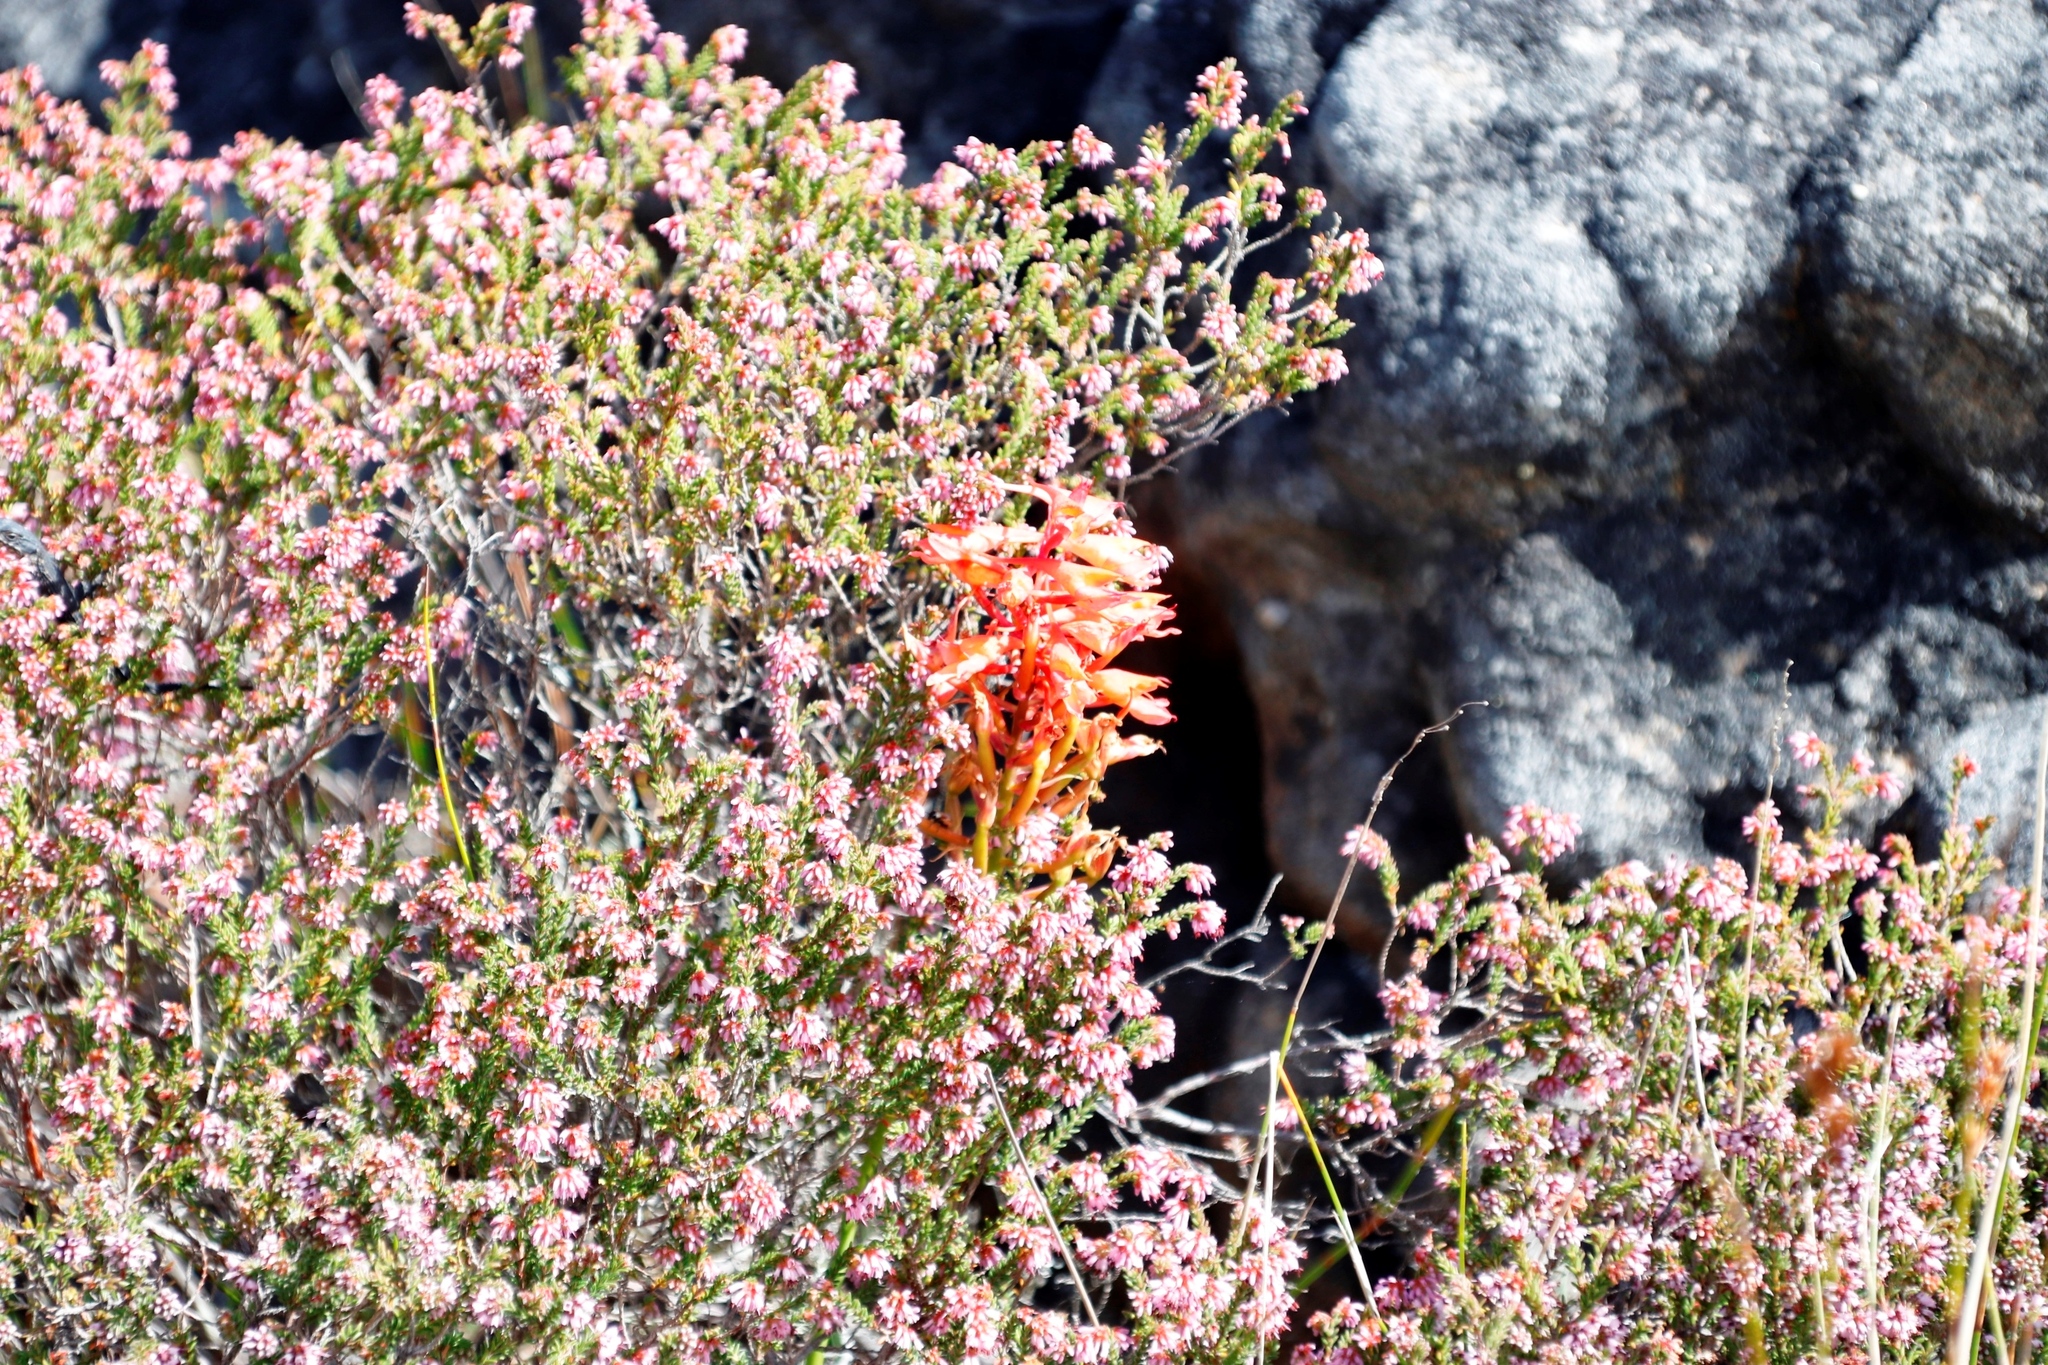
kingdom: Plantae
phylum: Tracheophyta
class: Liliopsida
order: Asparagales
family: Orchidaceae
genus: Disa
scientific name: Disa ferruginea
